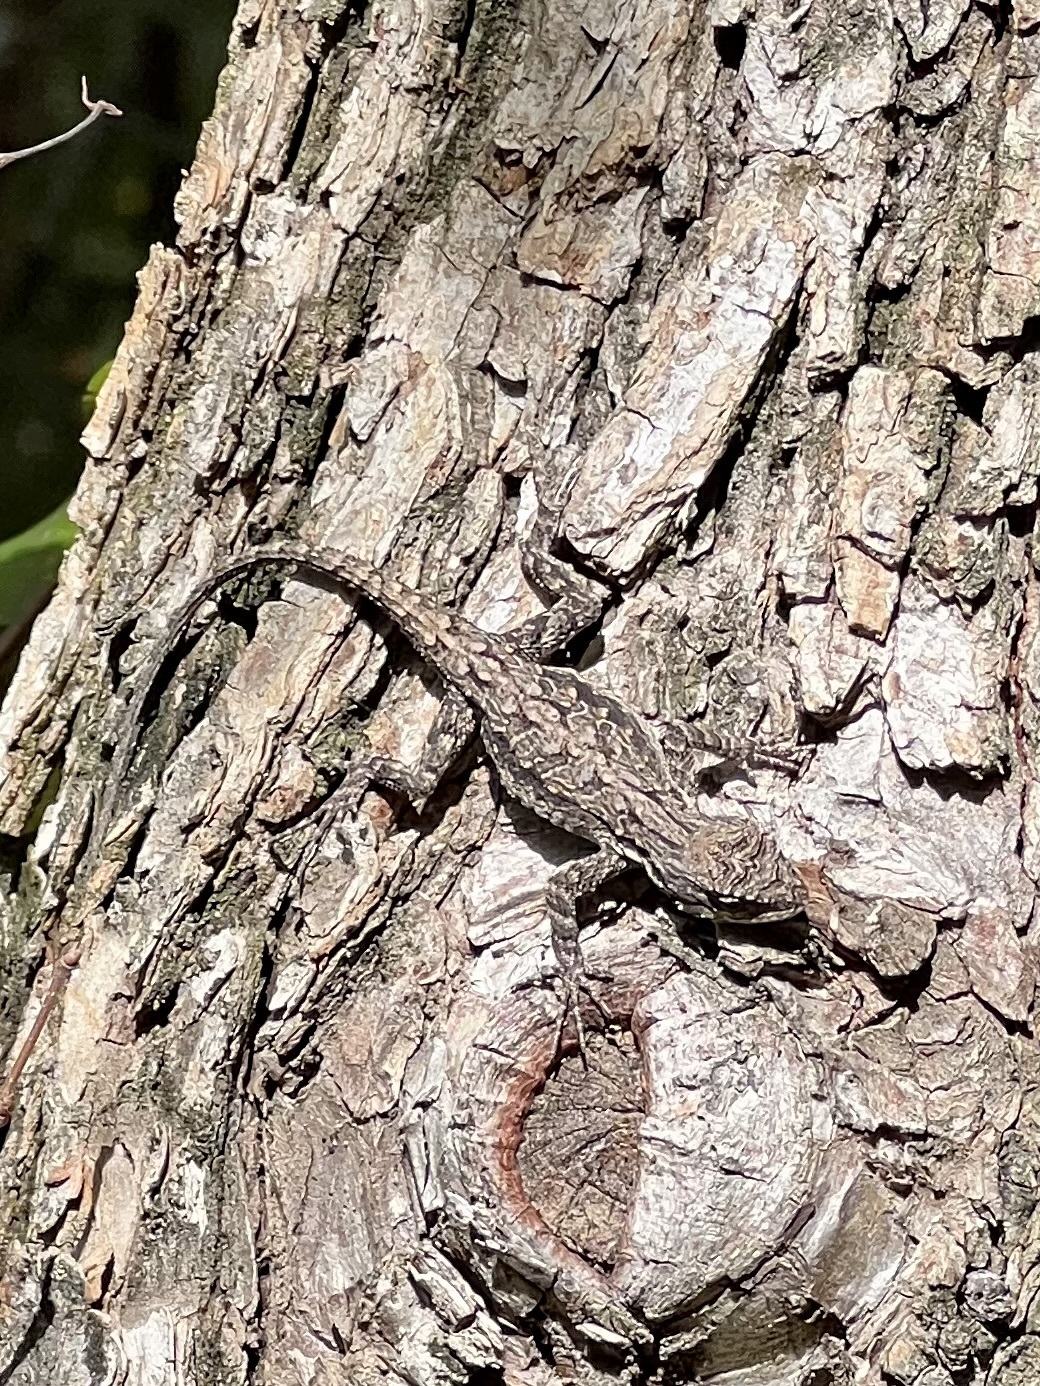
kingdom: Animalia
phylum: Chordata
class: Squamata
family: Phrynosomatidae
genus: Urosaurus
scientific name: Urosaurus ornatus
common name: Ornate tree lizard
